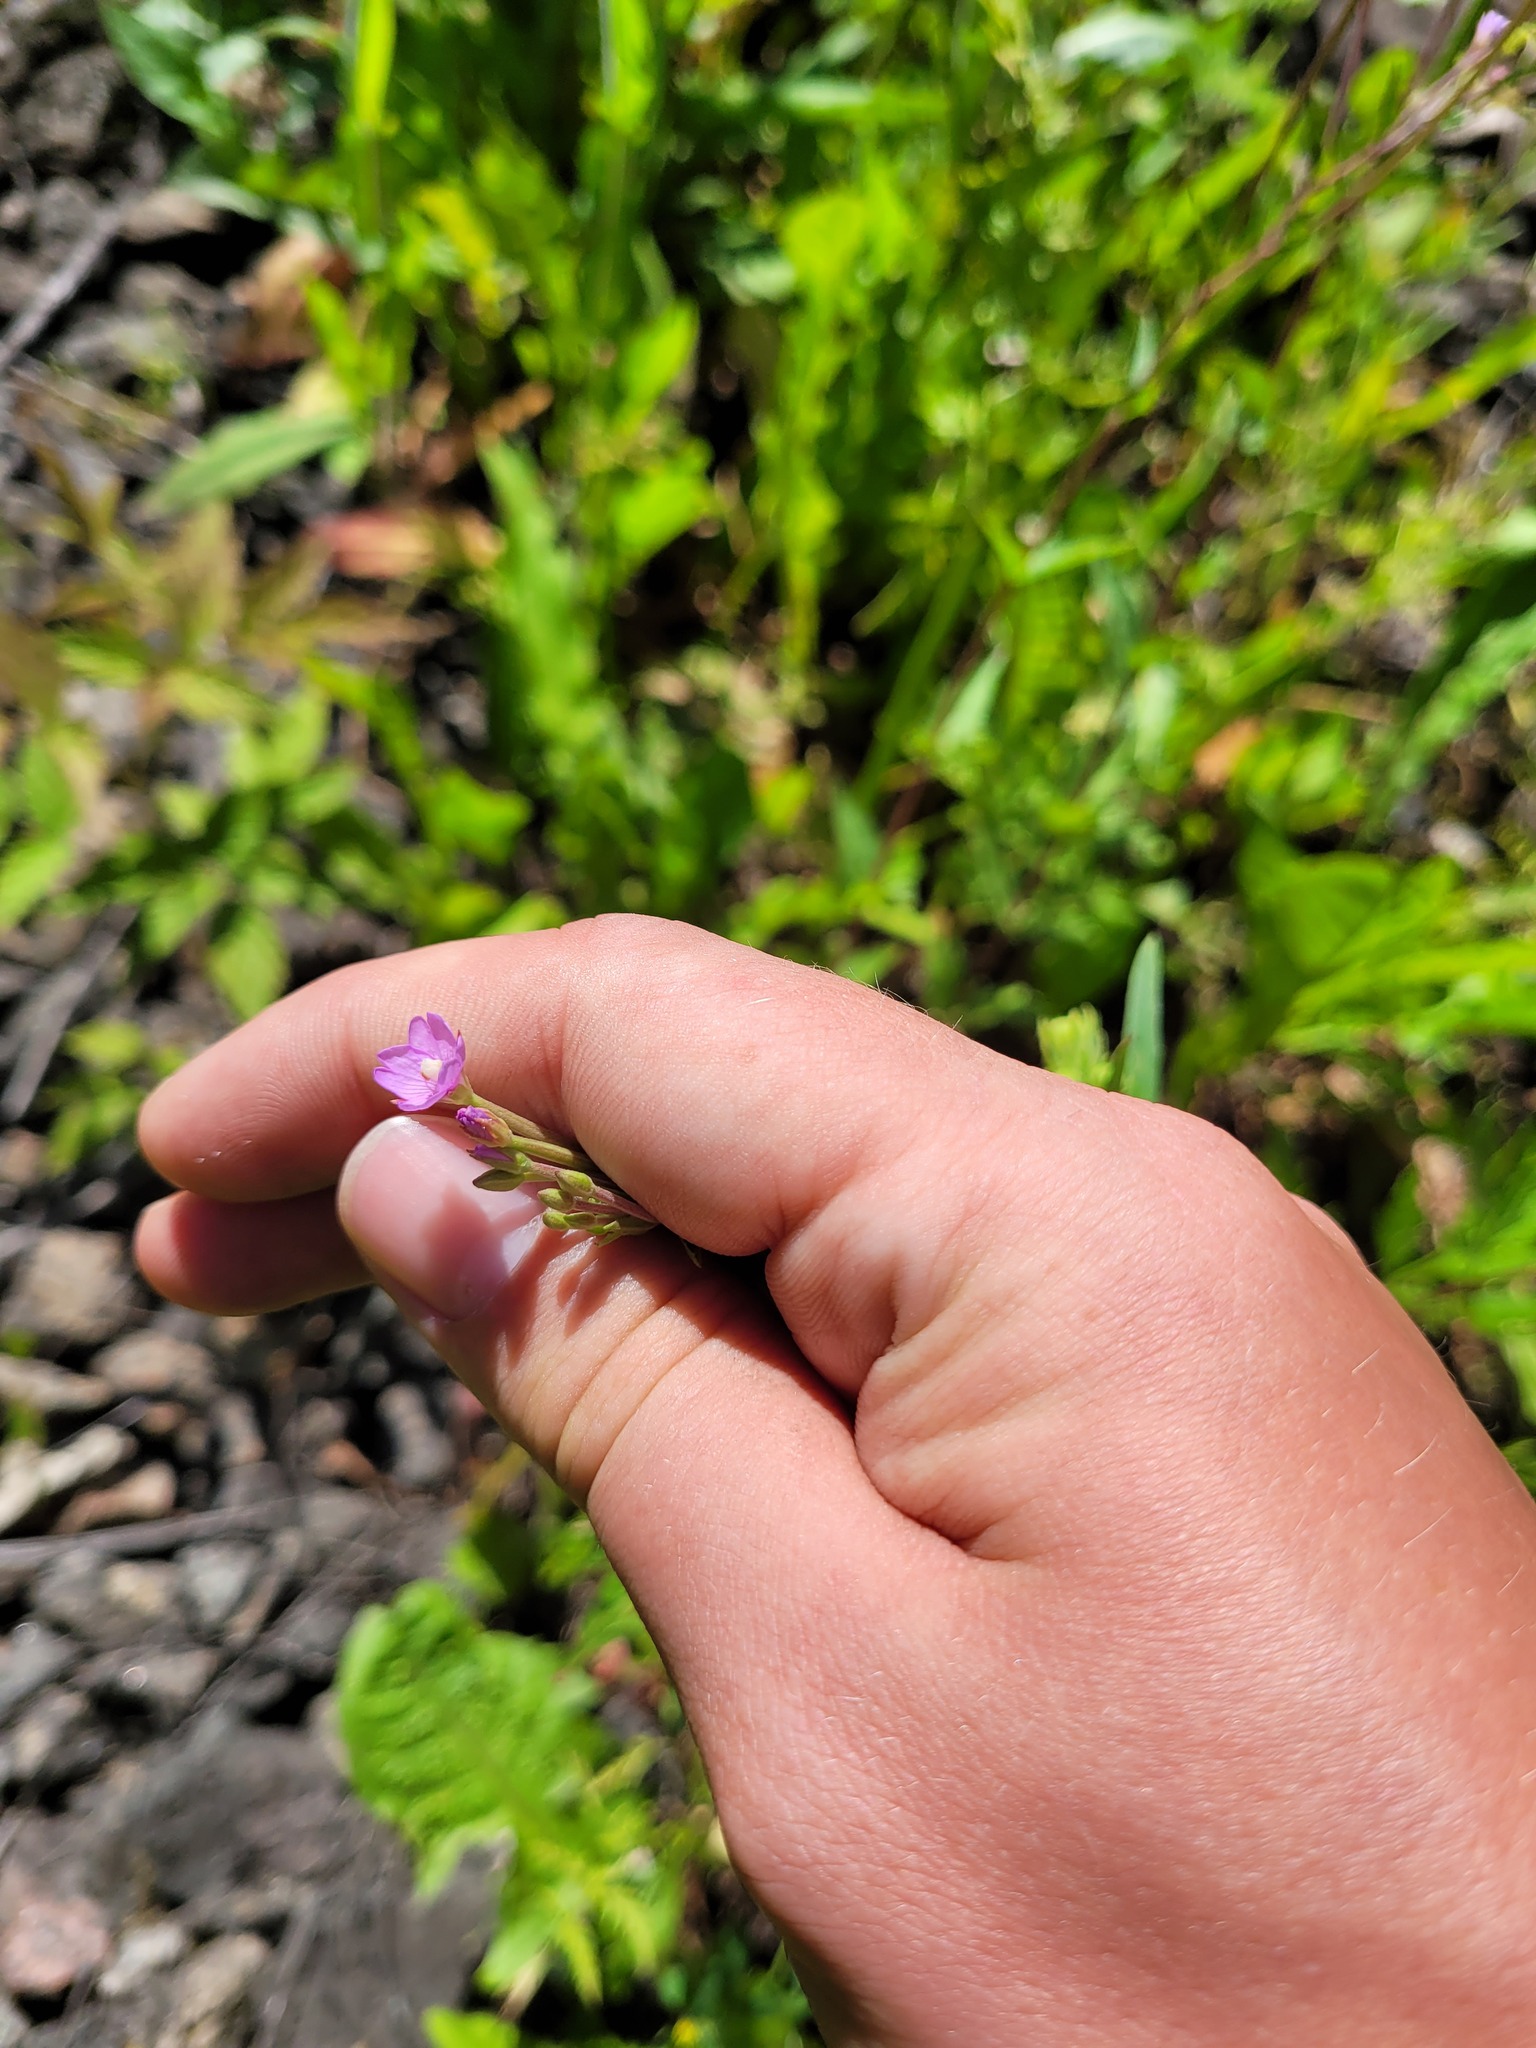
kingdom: Plantae
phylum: Tracheophyta
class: Magnoliopsida
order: Myrtales
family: Onagraceae
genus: Epilobium
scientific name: Epilobium tetragonum
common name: Square-stemmed willowherb
